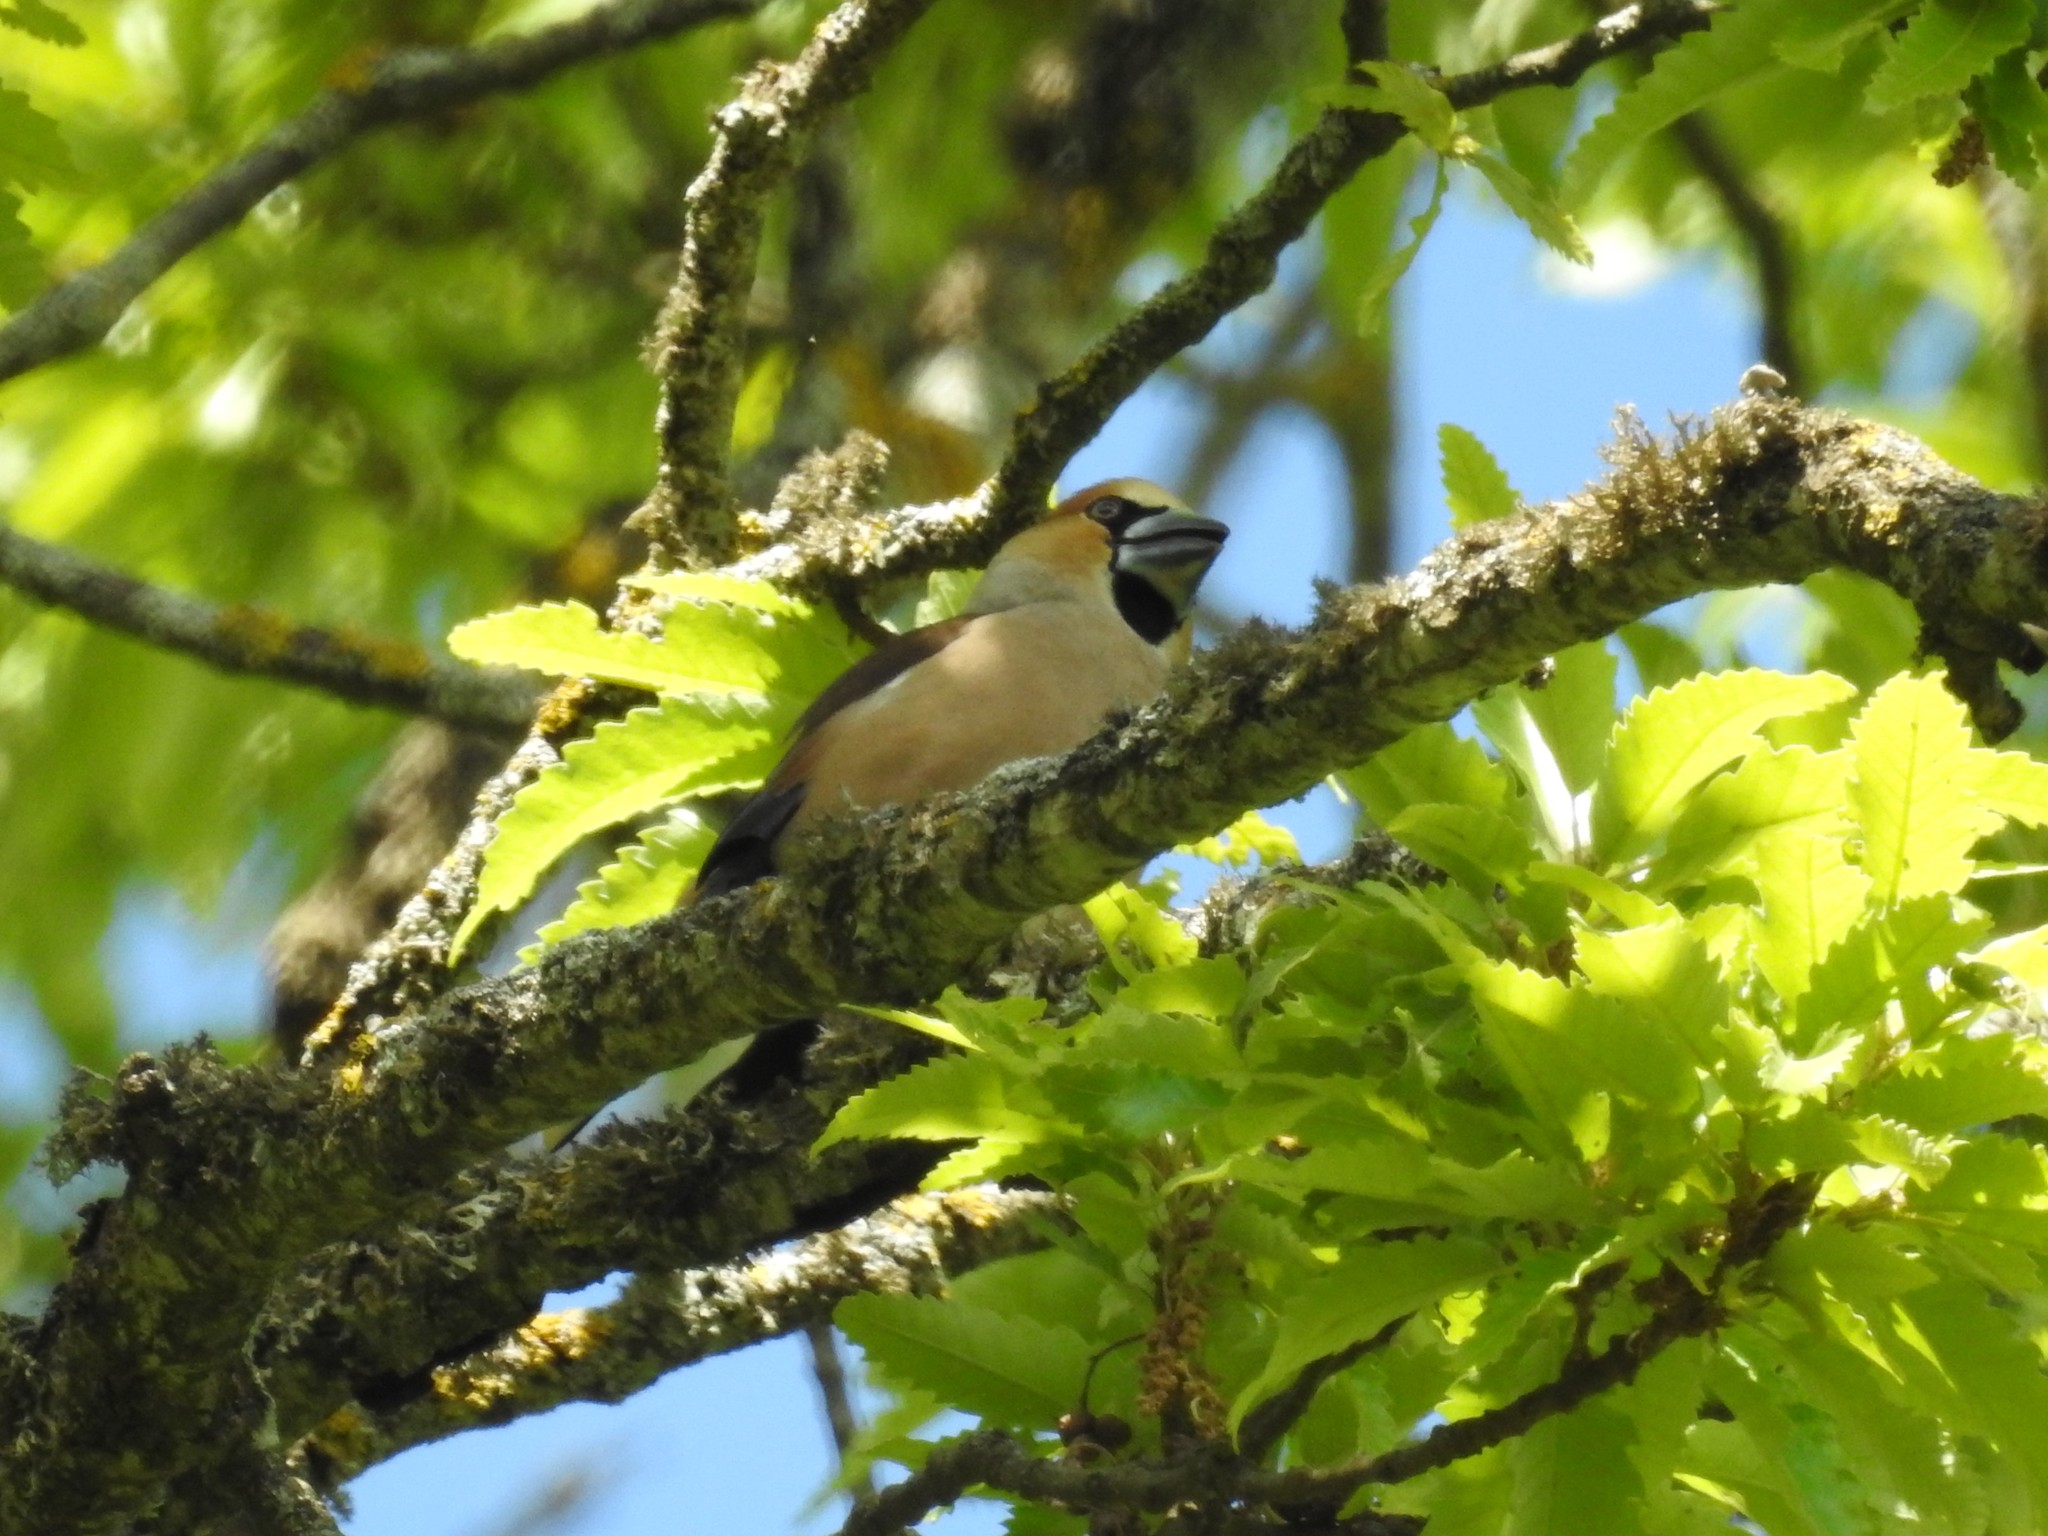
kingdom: Animalia
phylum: Chordata
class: Aves
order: Passeriformes
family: Fringillidae
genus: Coccothraustes
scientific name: Coccothraustes coccothraustes
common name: Hawfinch
